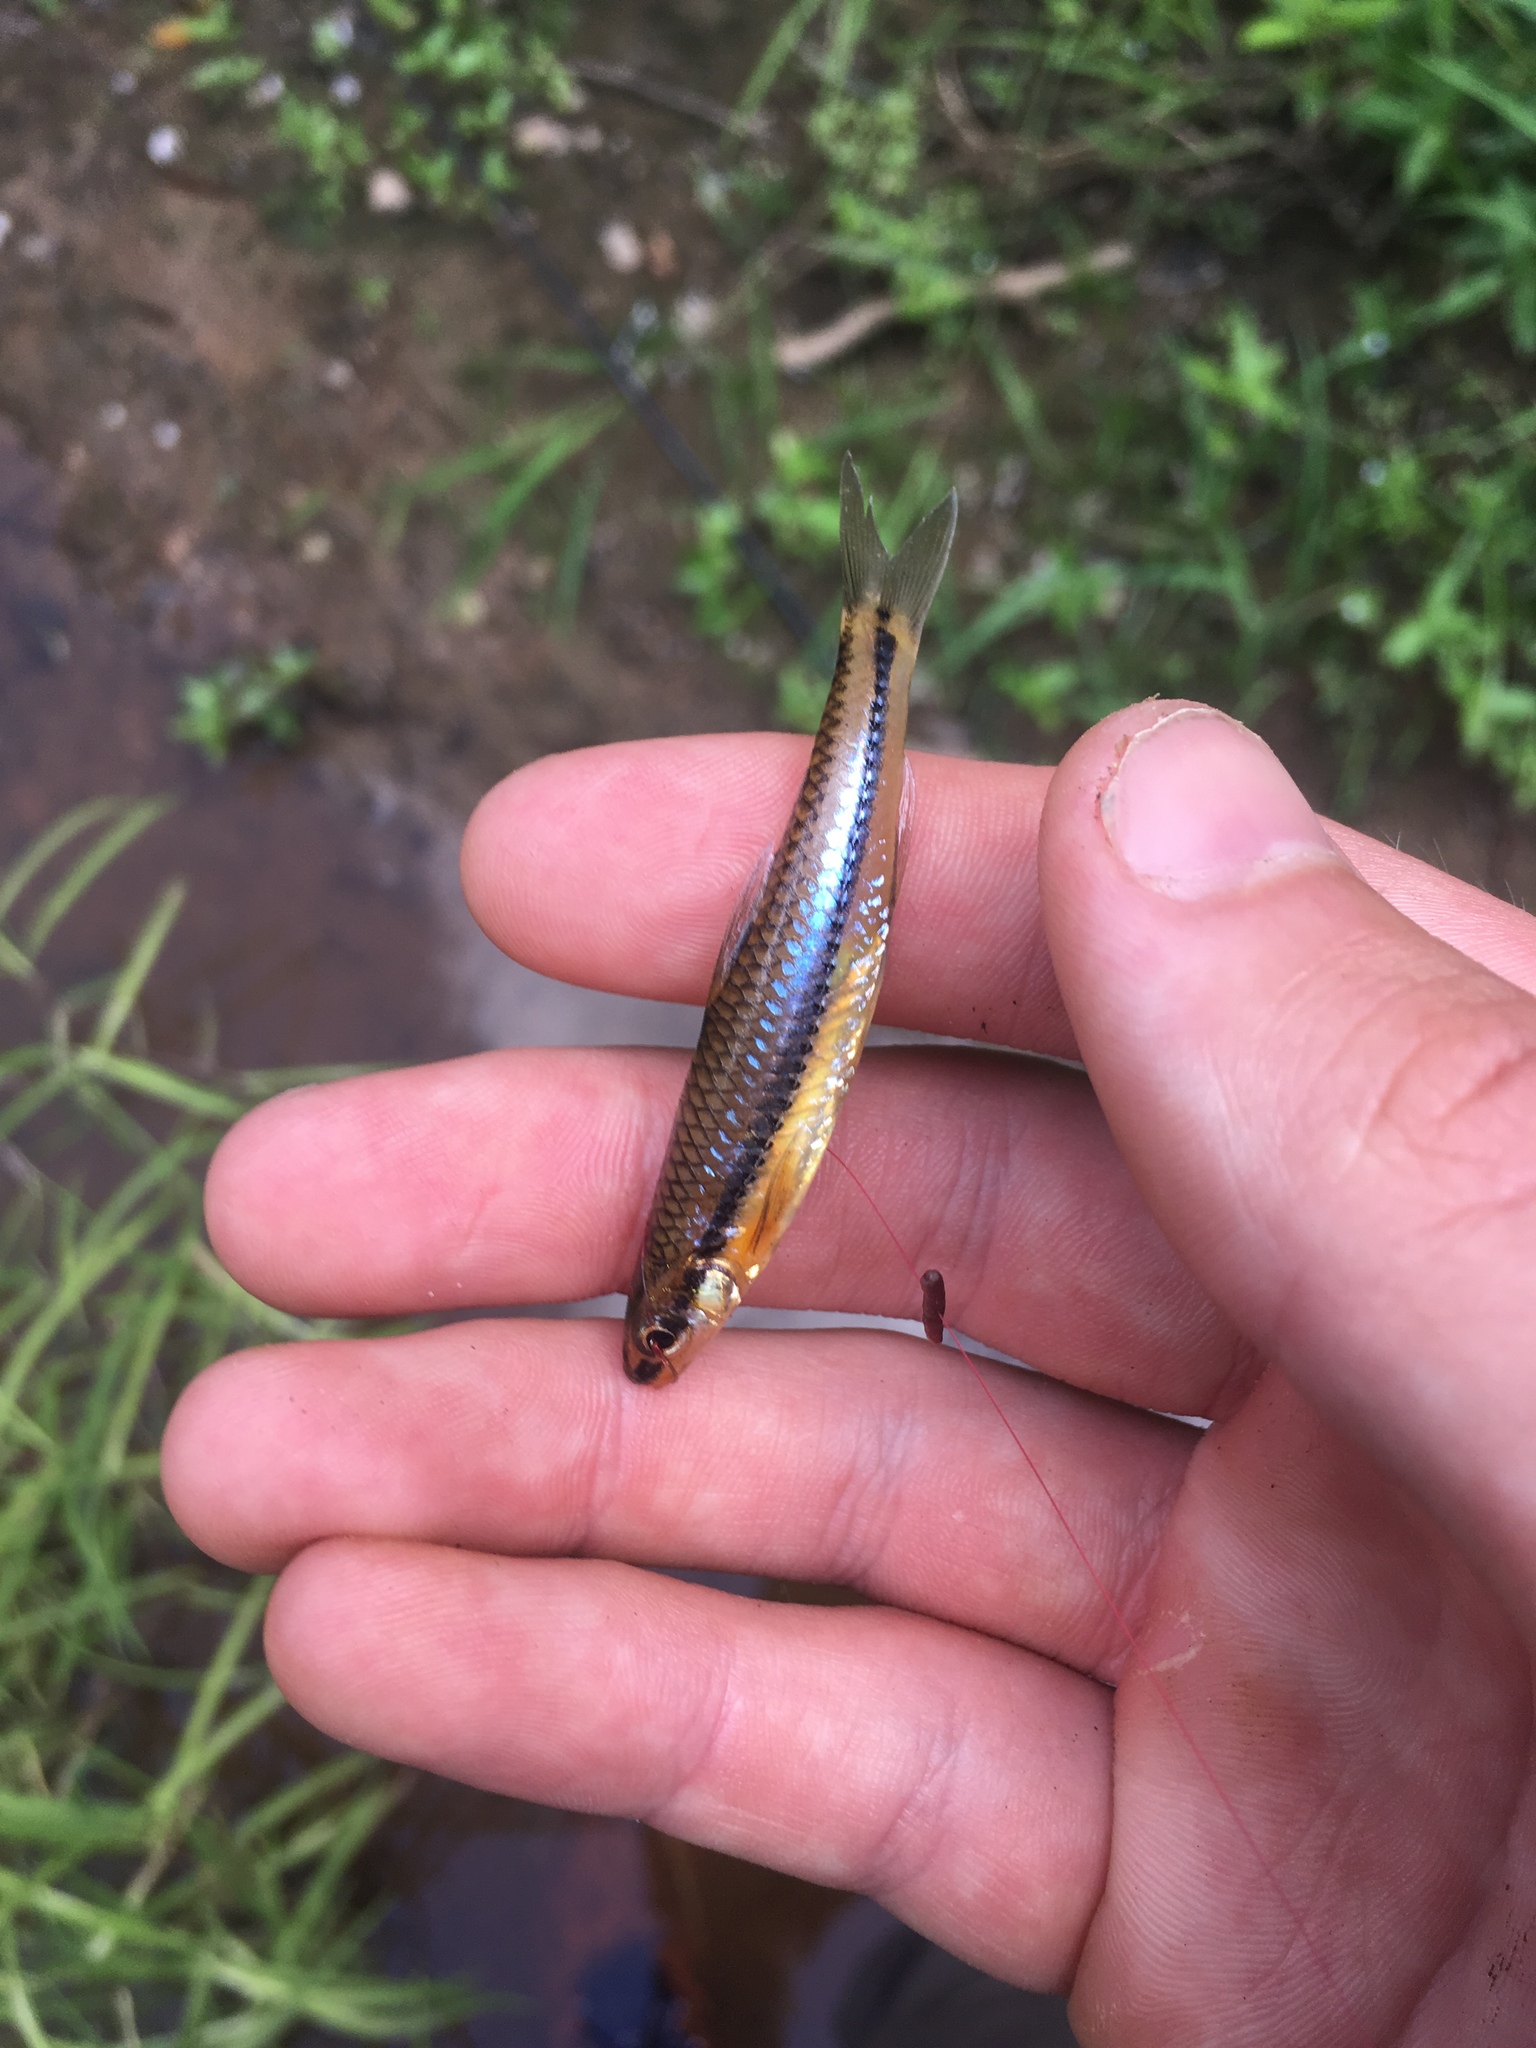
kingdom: Animalia
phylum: Chordata
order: Cypriniformes
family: Cyprinidae
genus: Notropis
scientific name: Notropis
